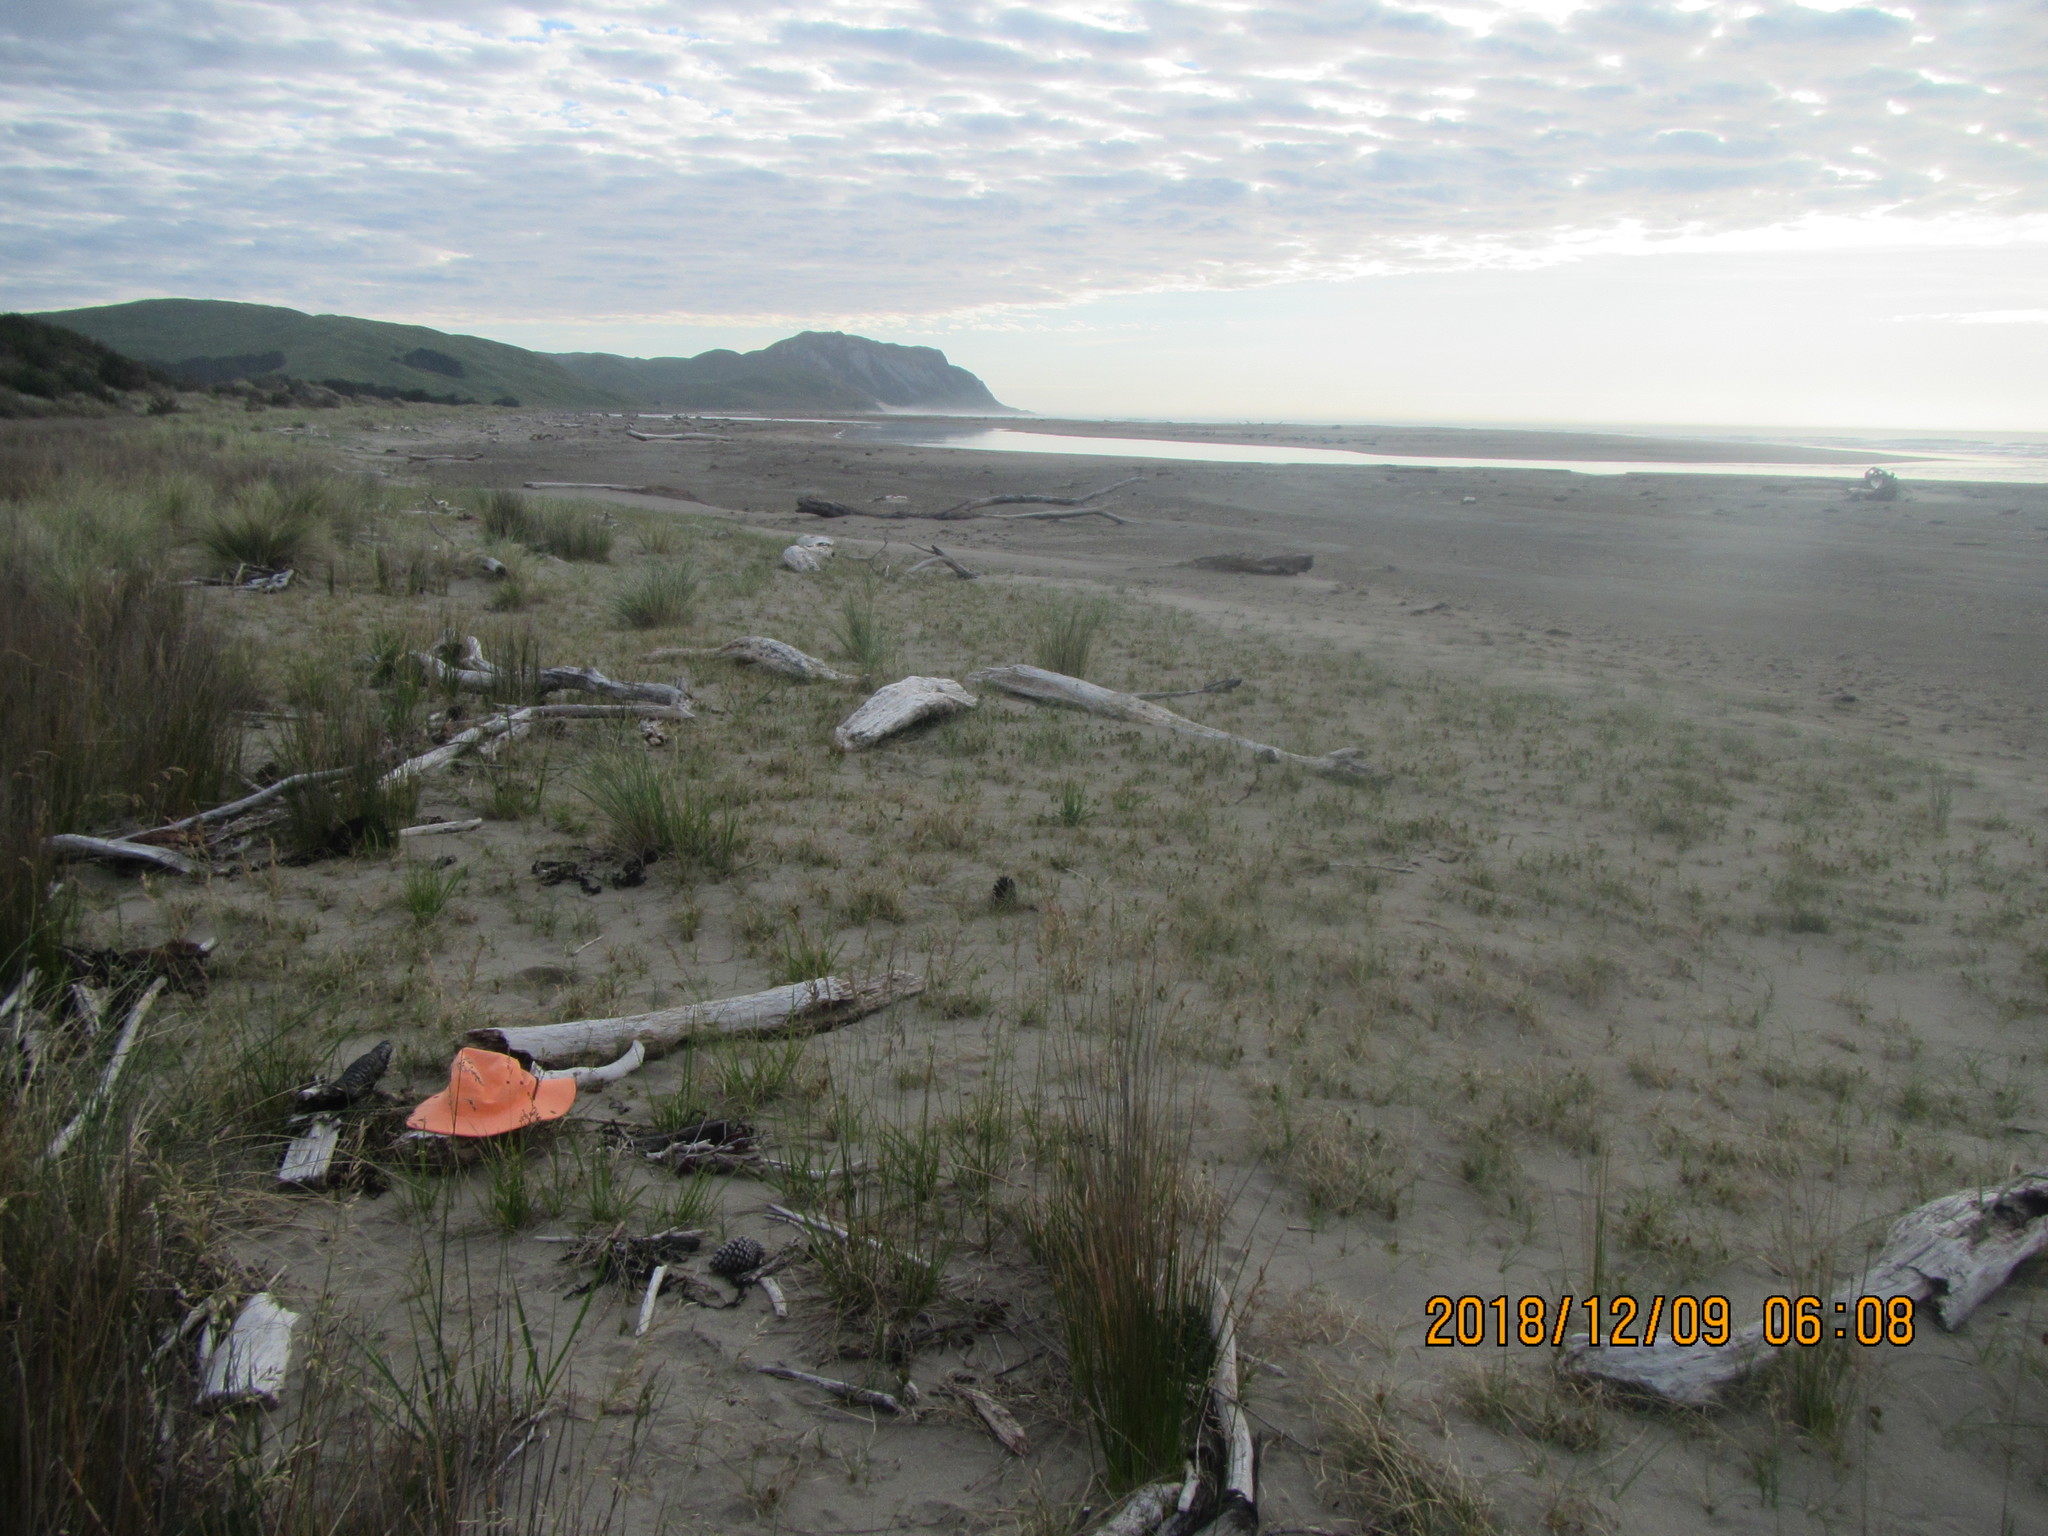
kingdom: Animalia
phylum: Mollusca
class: Cephalopoda
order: Spirulida
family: Spirulidae
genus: Spirula
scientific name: Spirula spirula
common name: Ram's horn squid
